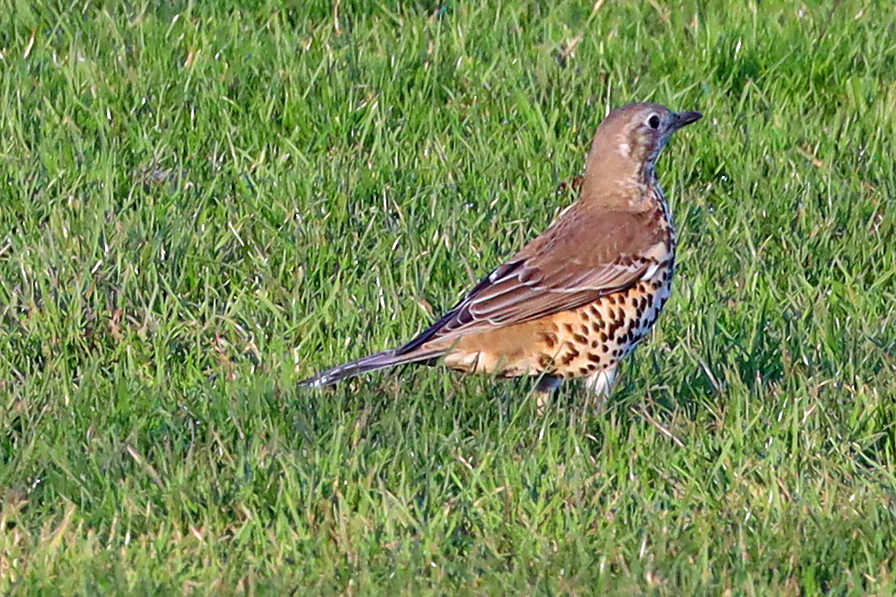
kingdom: Animalia
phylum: Chordata
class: Aves
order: Passeriformes
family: Turdidae
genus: Turdus
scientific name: Turdus viscivorus
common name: Mistle thrush
